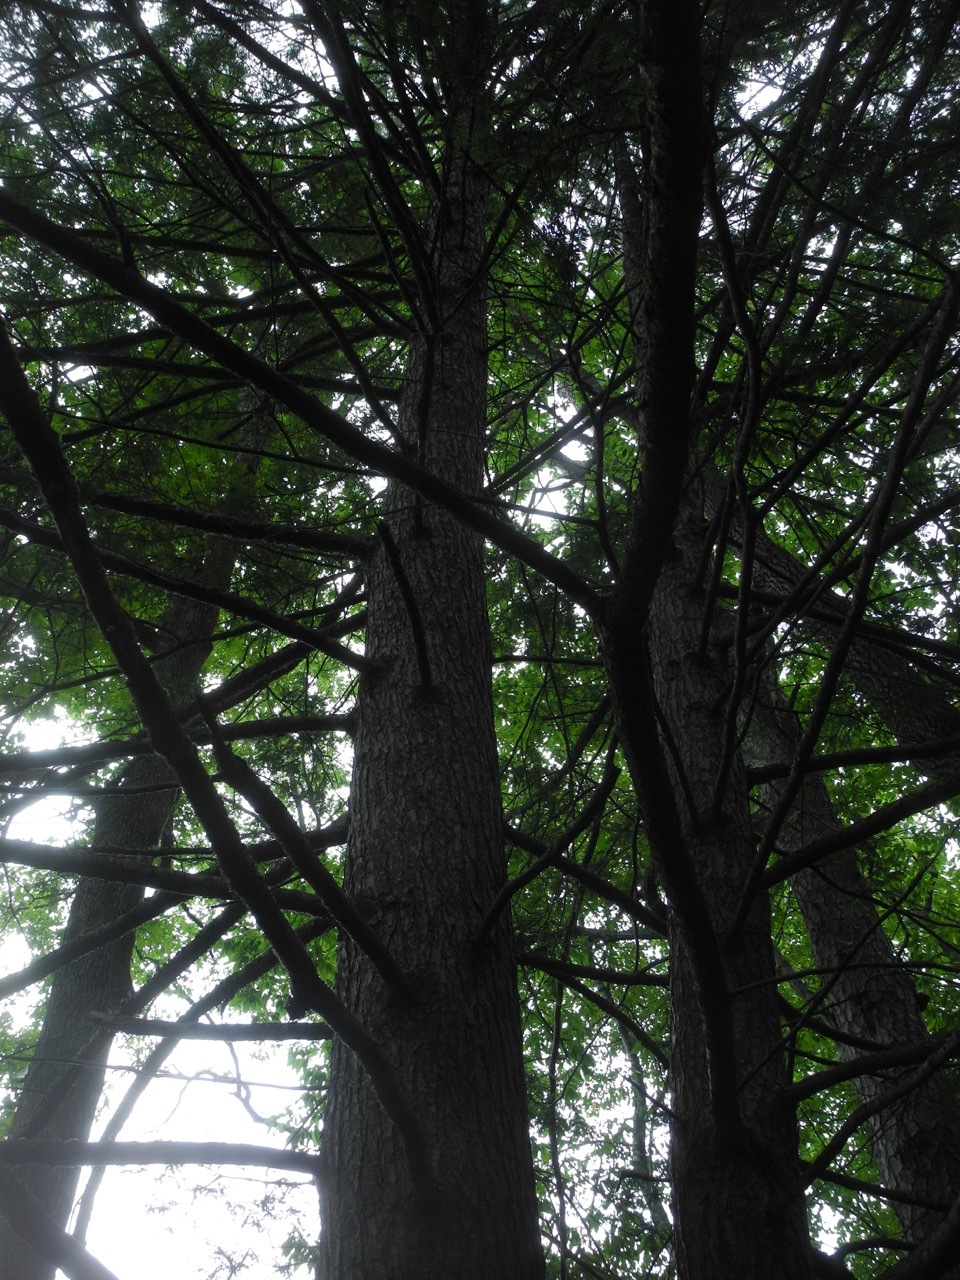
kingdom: Plantae
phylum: Tracheophyta
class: Pinopsida
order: Pinales
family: Pinaceae
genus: Tsuga
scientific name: Tsuga canadensis
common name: Eastern hemlock
